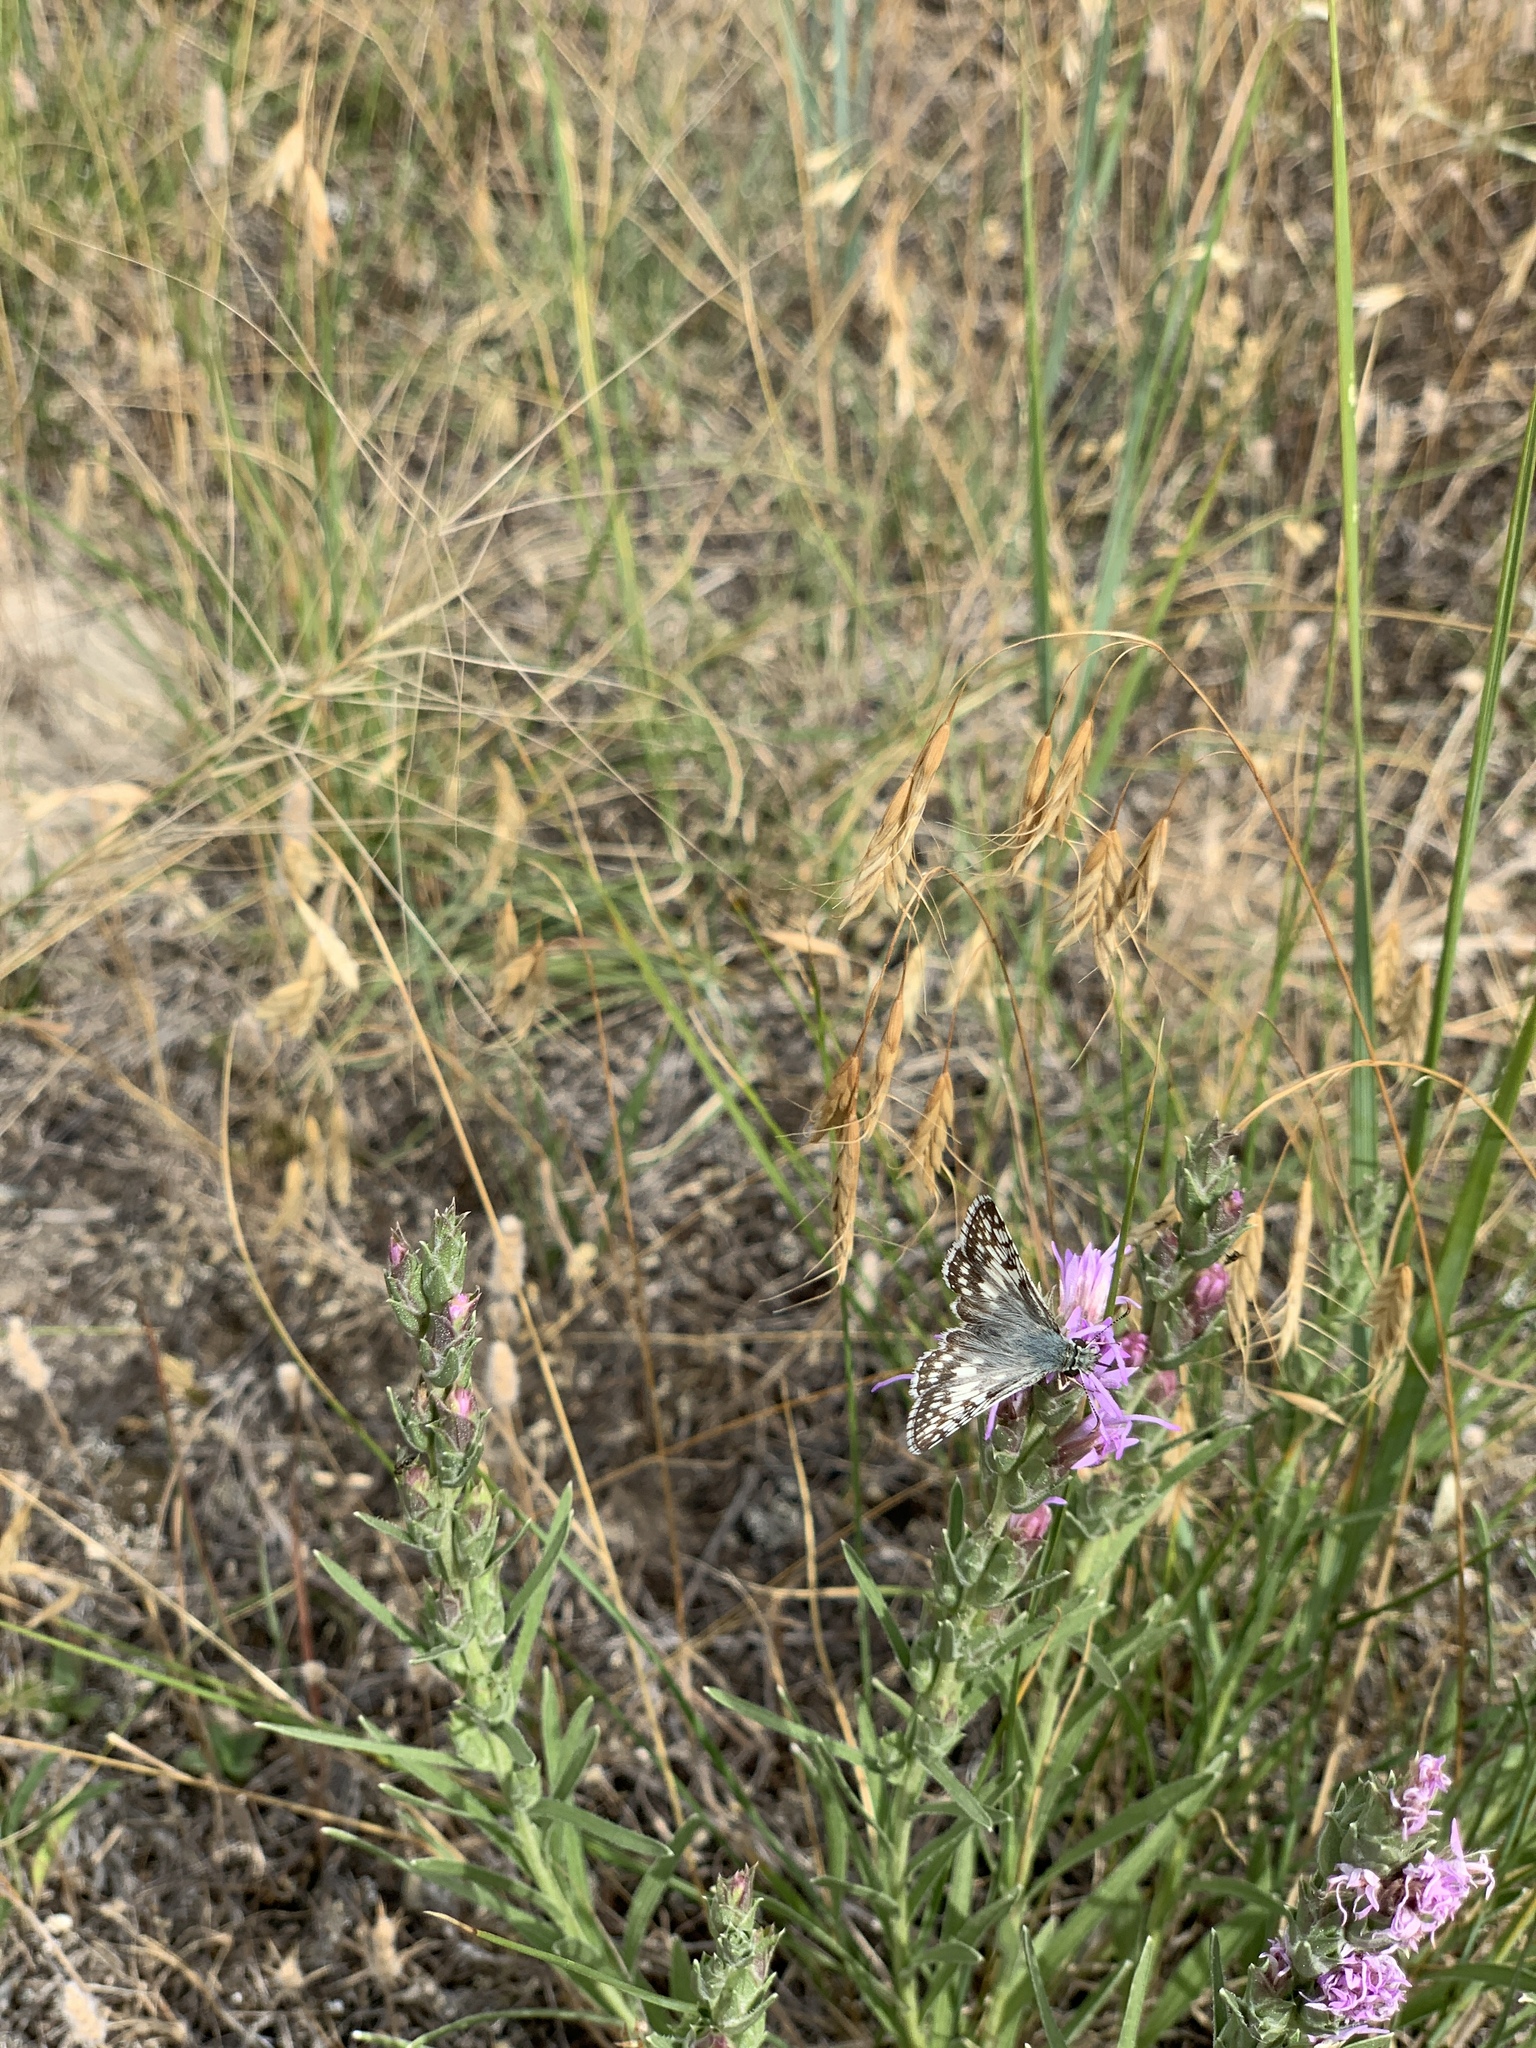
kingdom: Animalia
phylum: Arthropoda
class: Insecta
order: Lepidoptera
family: Hesperiidae
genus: Burnsius
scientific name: Burnsius communis
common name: Common checkered-skipper
